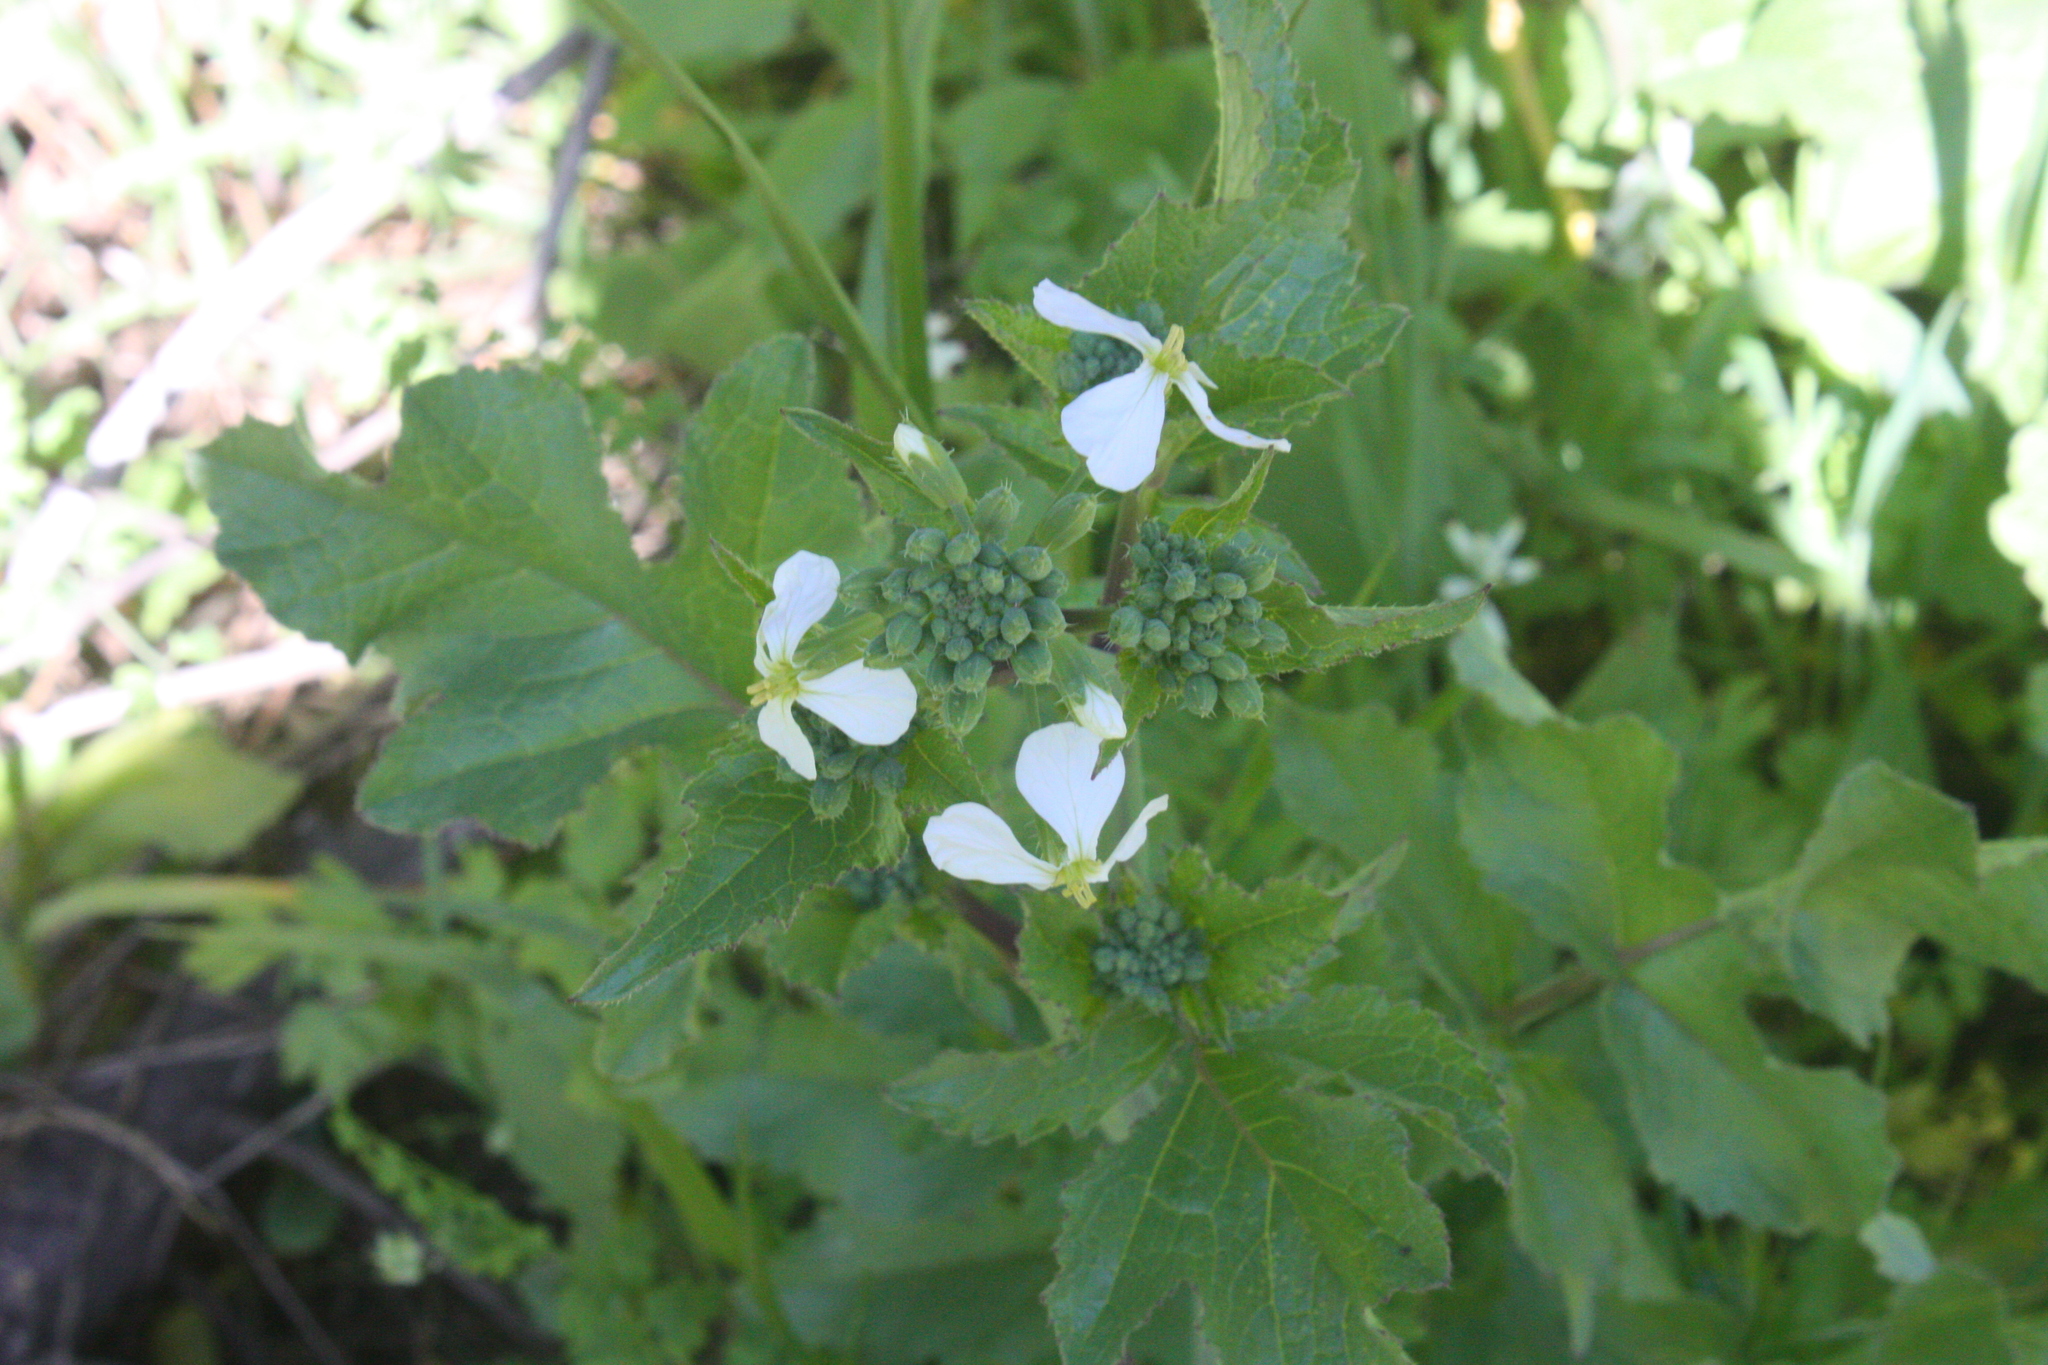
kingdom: Plantae
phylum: Tracheophyta
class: Magnoliopsida
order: Brassicales
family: Brassicaceae
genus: Raphanus
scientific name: Raphanus sativus
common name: Cultivated radish
